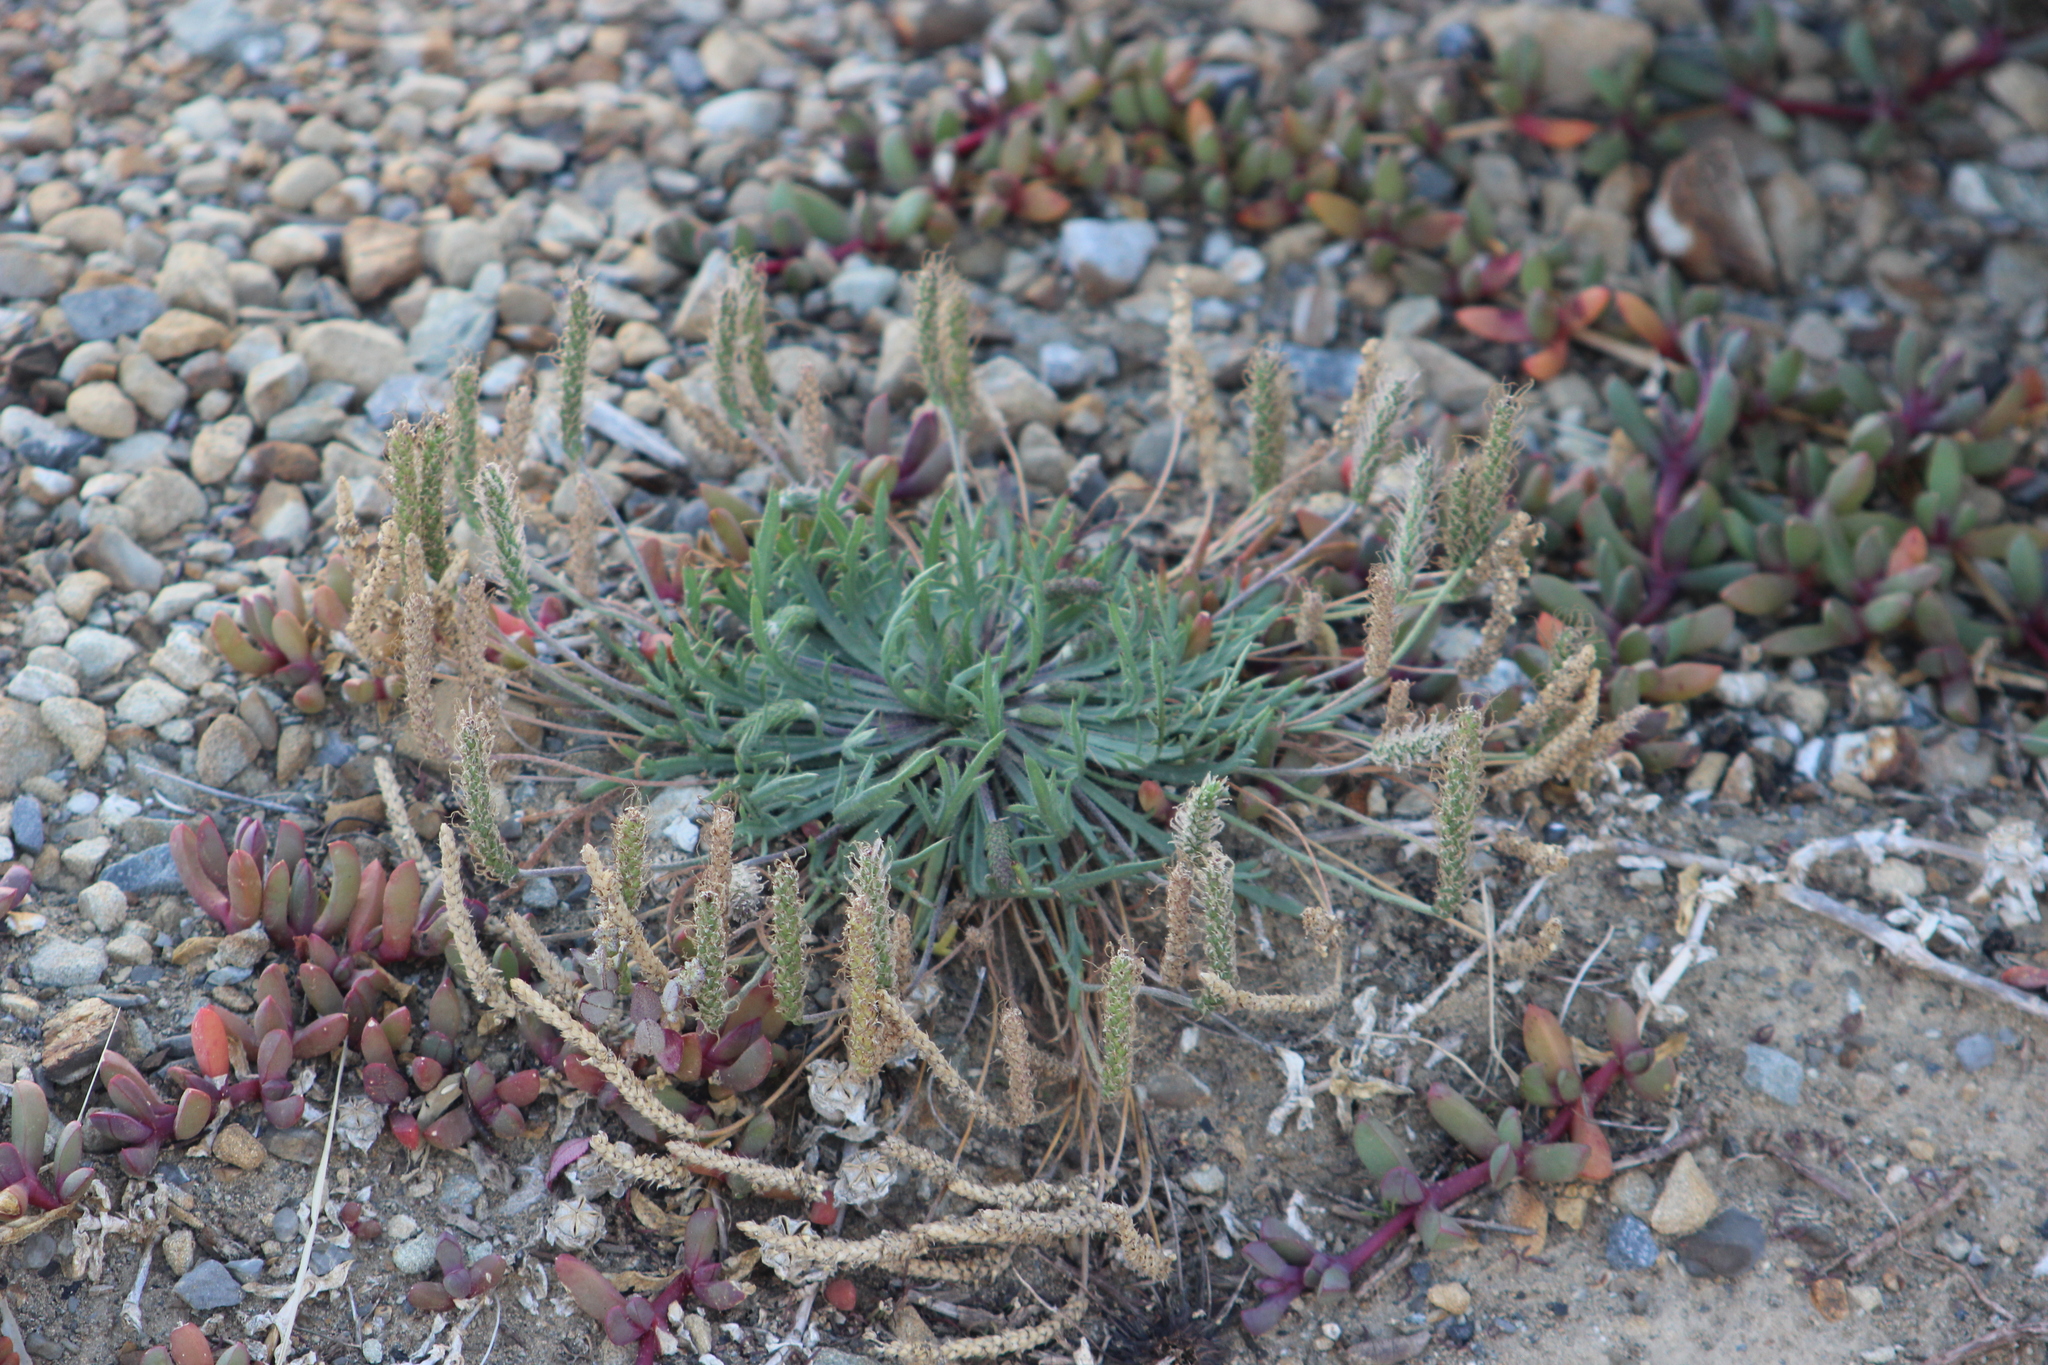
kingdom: Plantae
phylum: Tracheophyta
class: Magnoliopsida
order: Lamiales
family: Plantaginaceae
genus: Plantago
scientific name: Plantago coronopus
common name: Buck's-horn plantain
